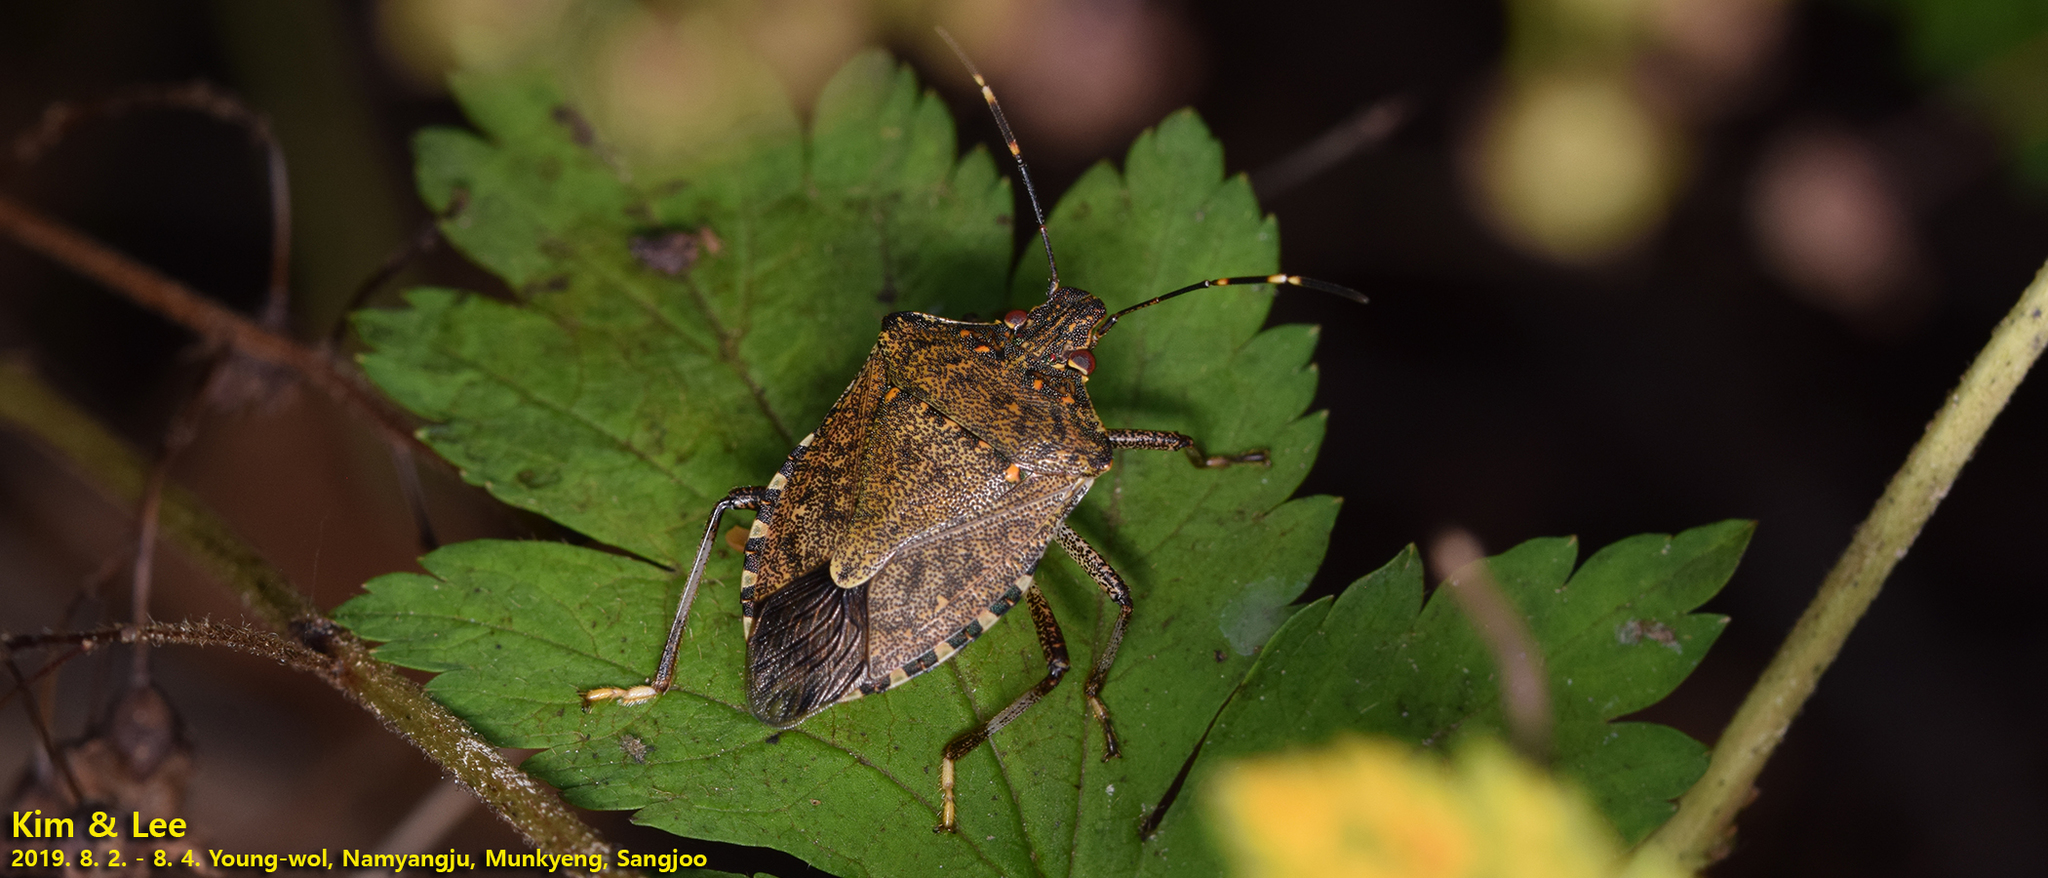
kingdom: Animalia
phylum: Arthropoda
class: Insecta
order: Hemiptera
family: Pentatomidae
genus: Halyomorpha
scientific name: Halyomorpha halys
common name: Brown marmorated stink bug
